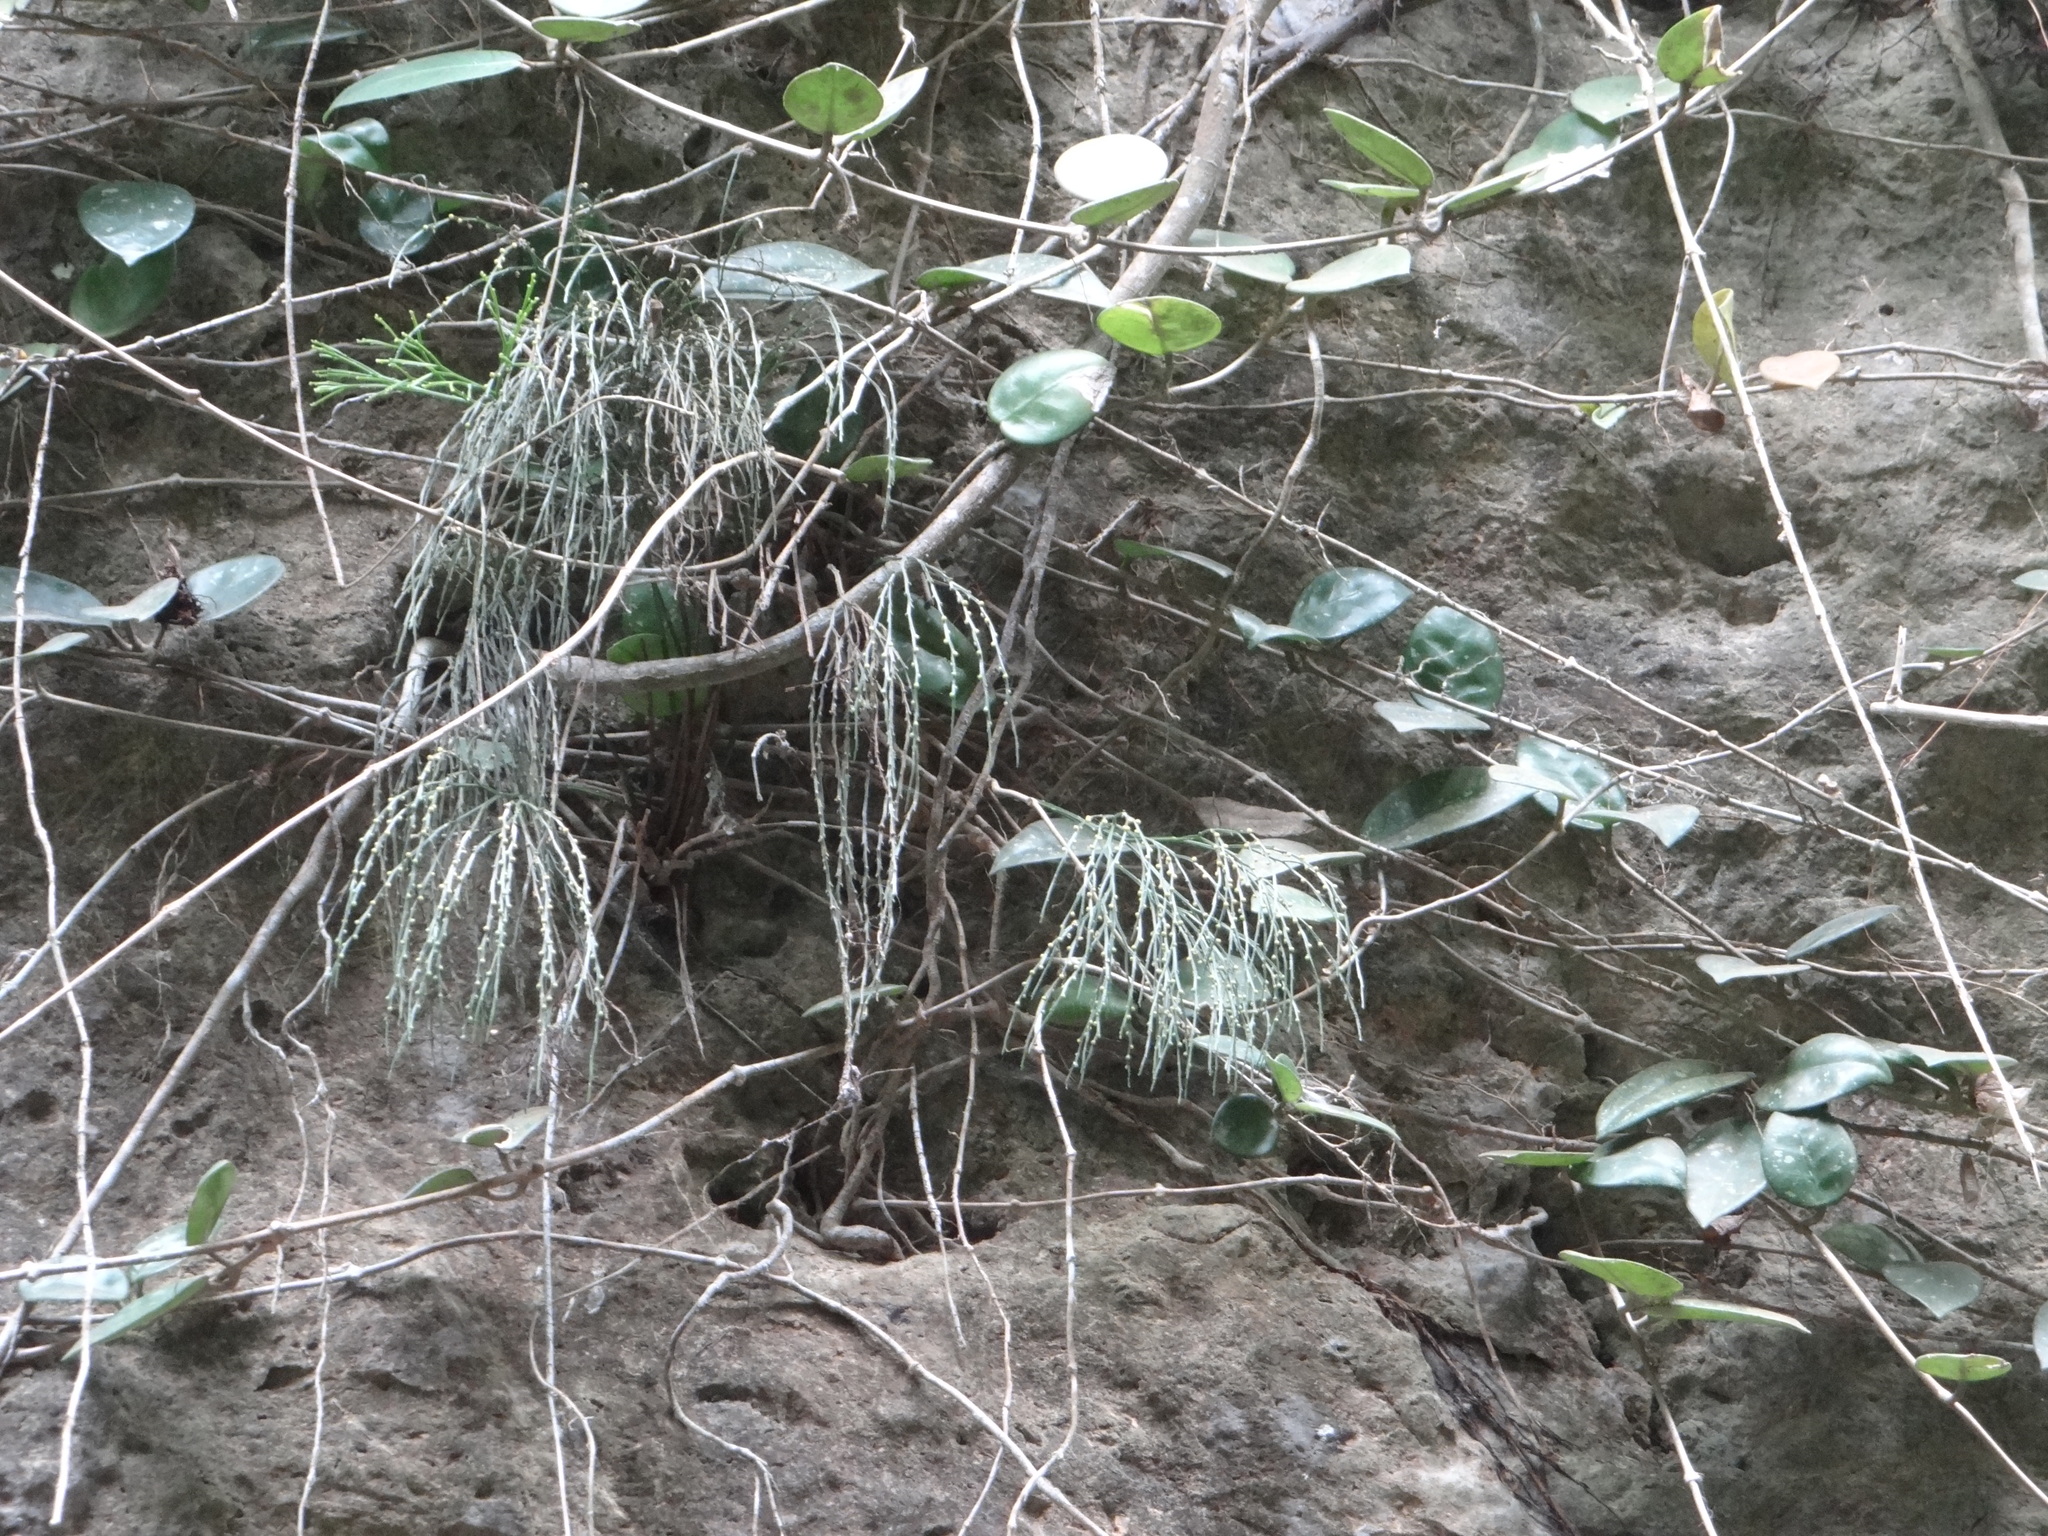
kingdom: Plantae
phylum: Tracheophyta
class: Polypodiopsida
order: Psilotales
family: Psilotaceae
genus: Psilotum
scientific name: Psilotum nudum
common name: Skeleton fork fern
